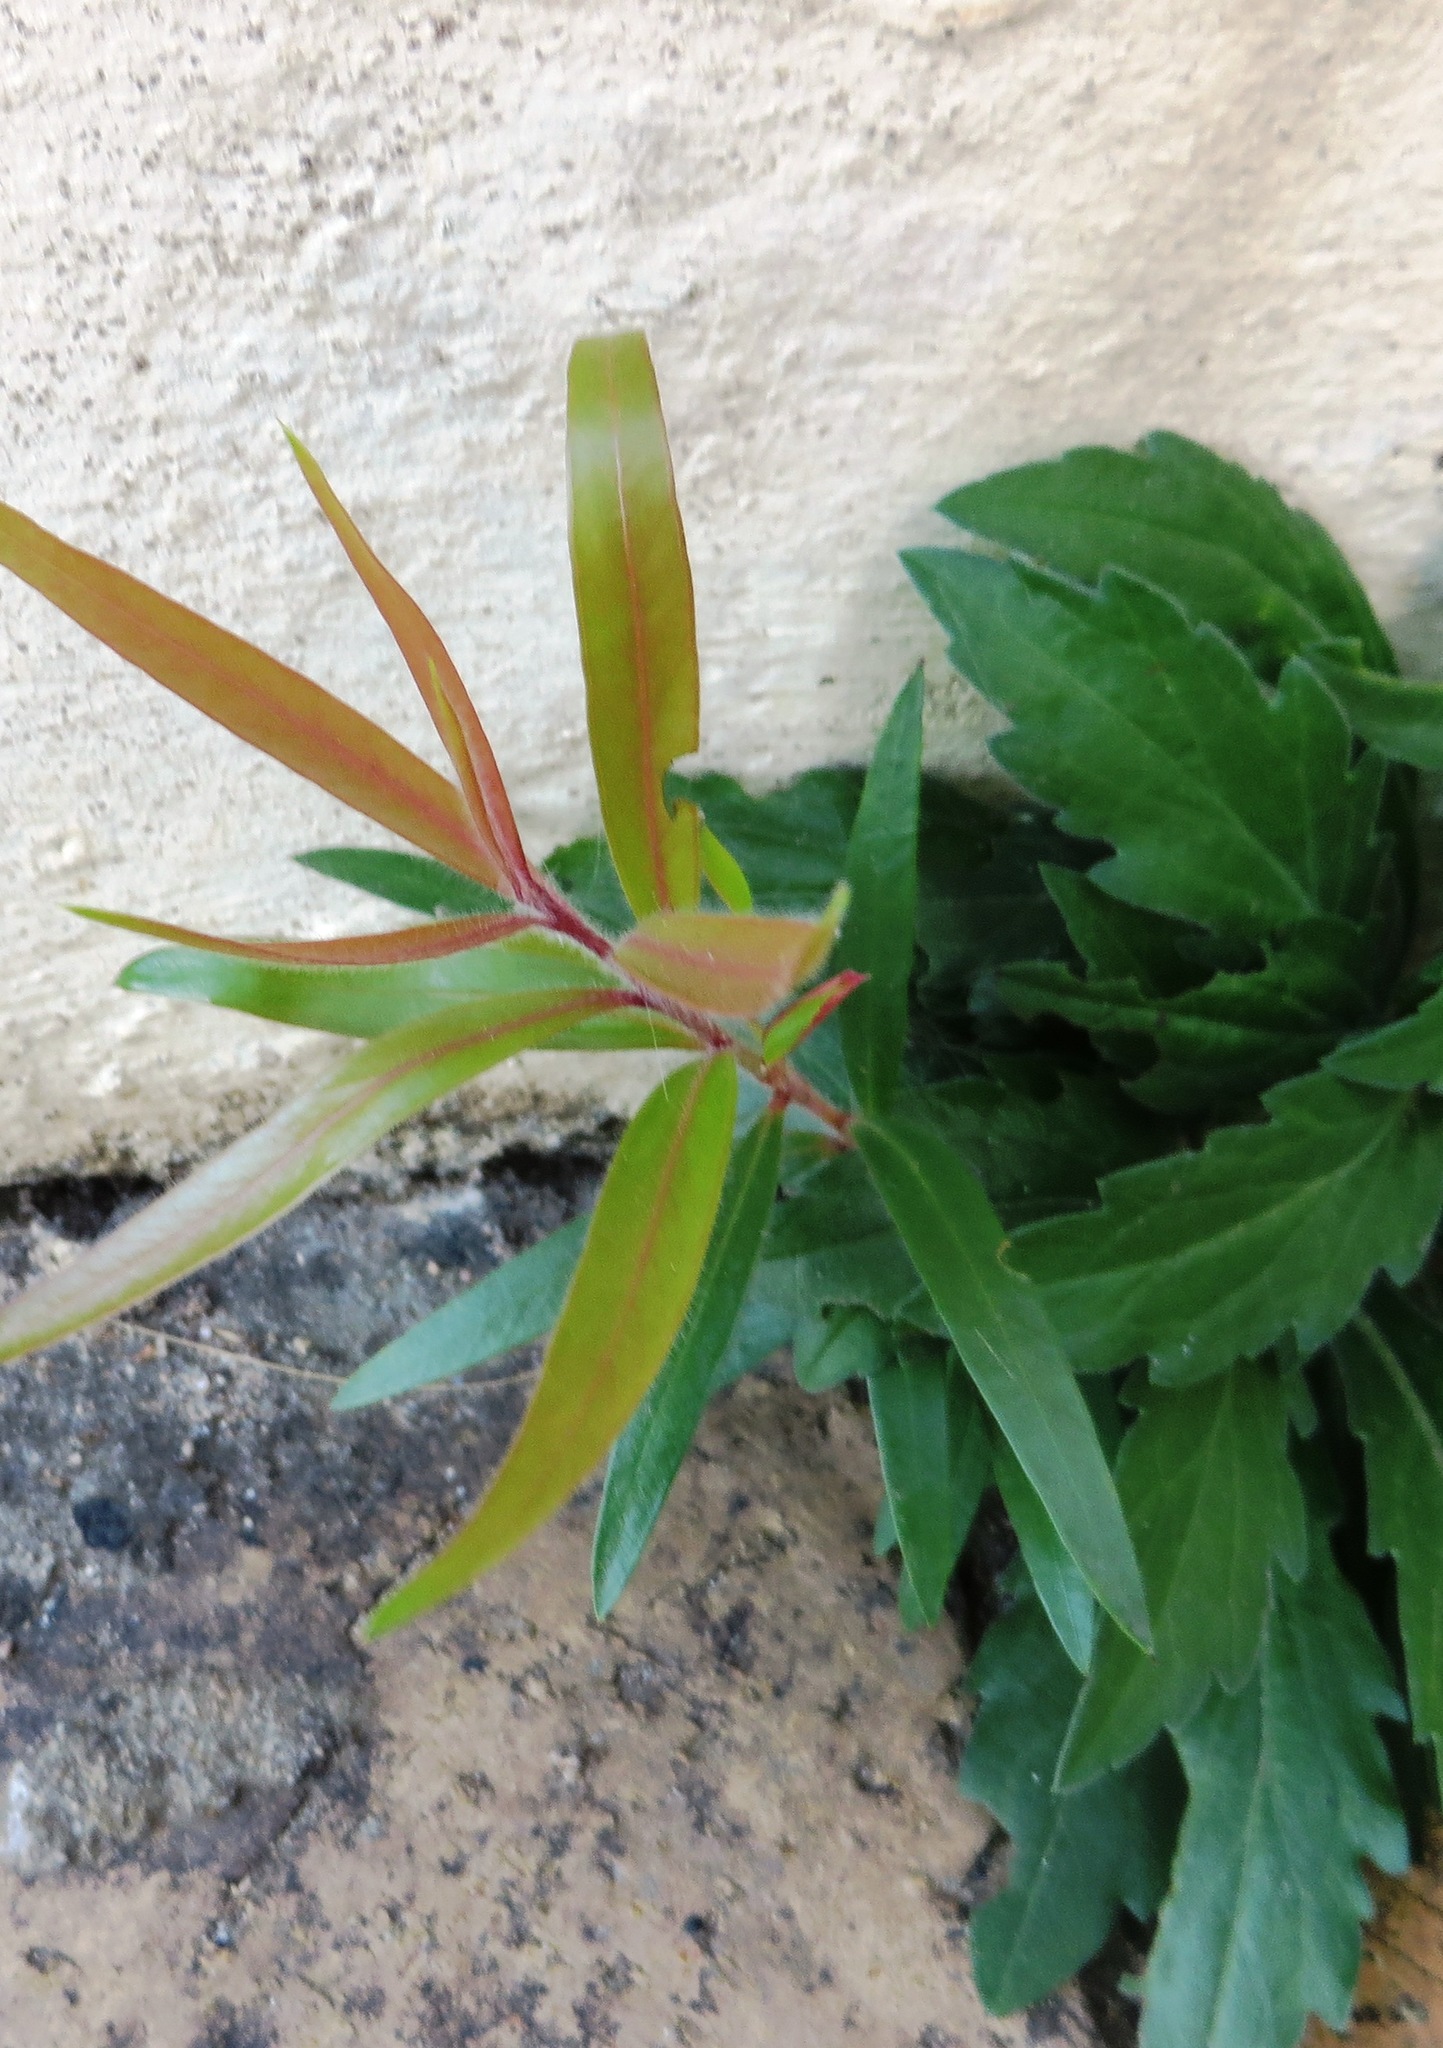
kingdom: Plantae
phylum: Tracheophyta
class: Magnoliopsida
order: Myrtales
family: Myrtaceae
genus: Callistemon
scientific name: Callistemon viminalis
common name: Drooping bottlebrush
